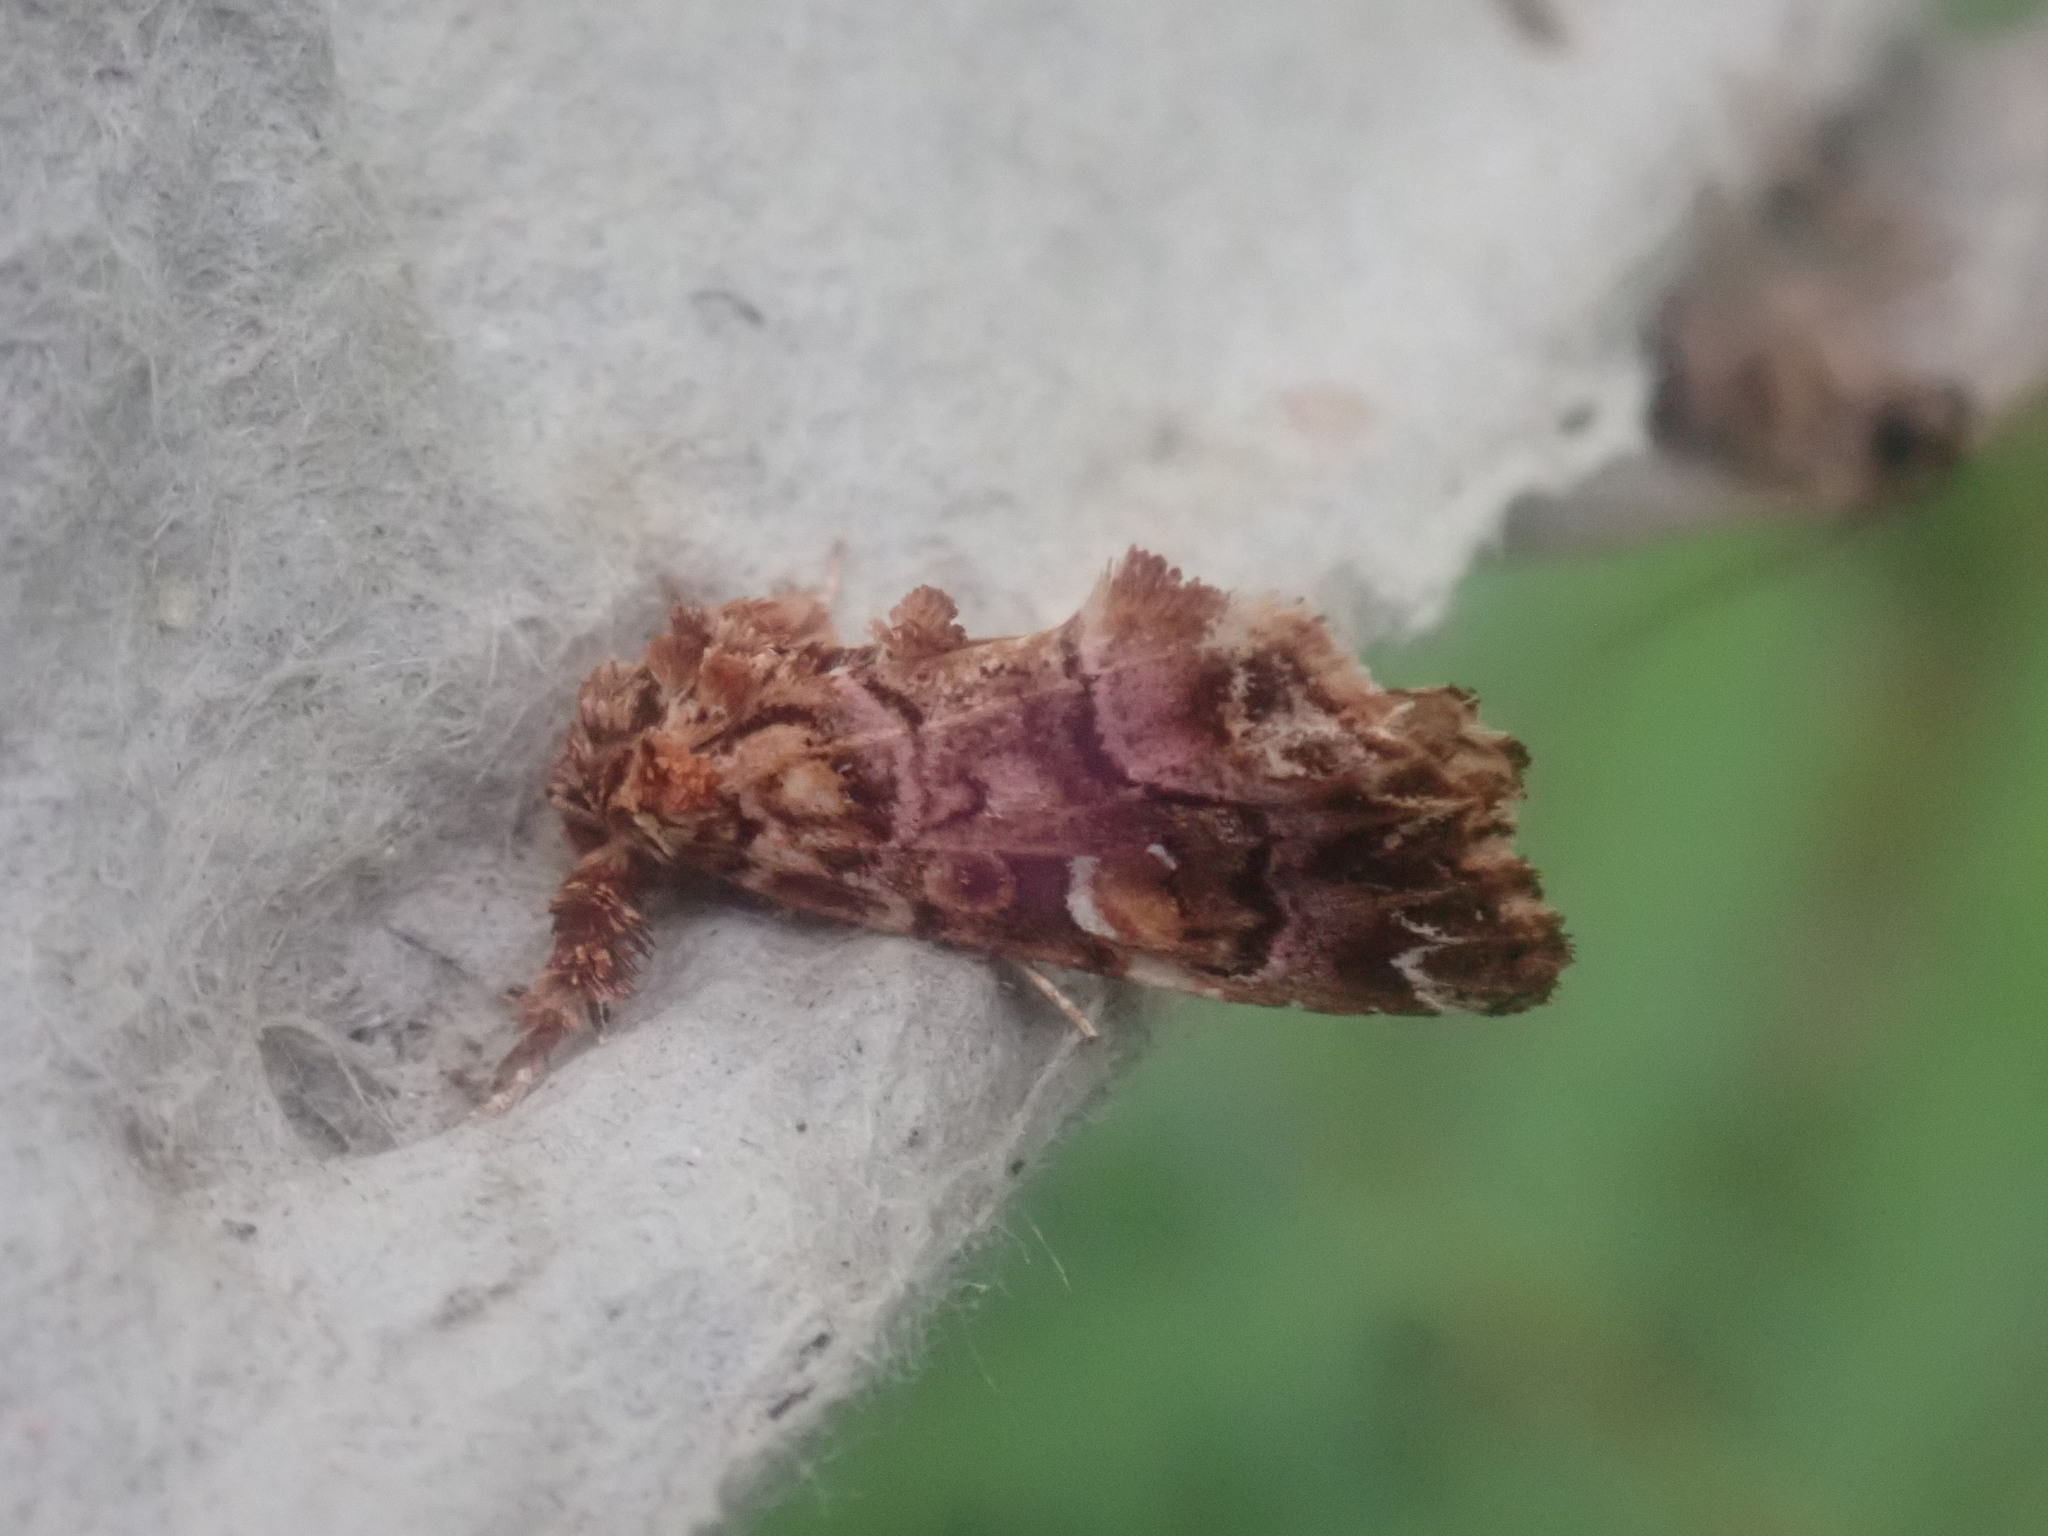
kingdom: Animalia
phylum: Arthropoda
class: Insecta
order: Lepidoptera
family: Noctuidae
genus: Callopistria
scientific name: Callopistria mollissima
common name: Pink-shaded fern moth
